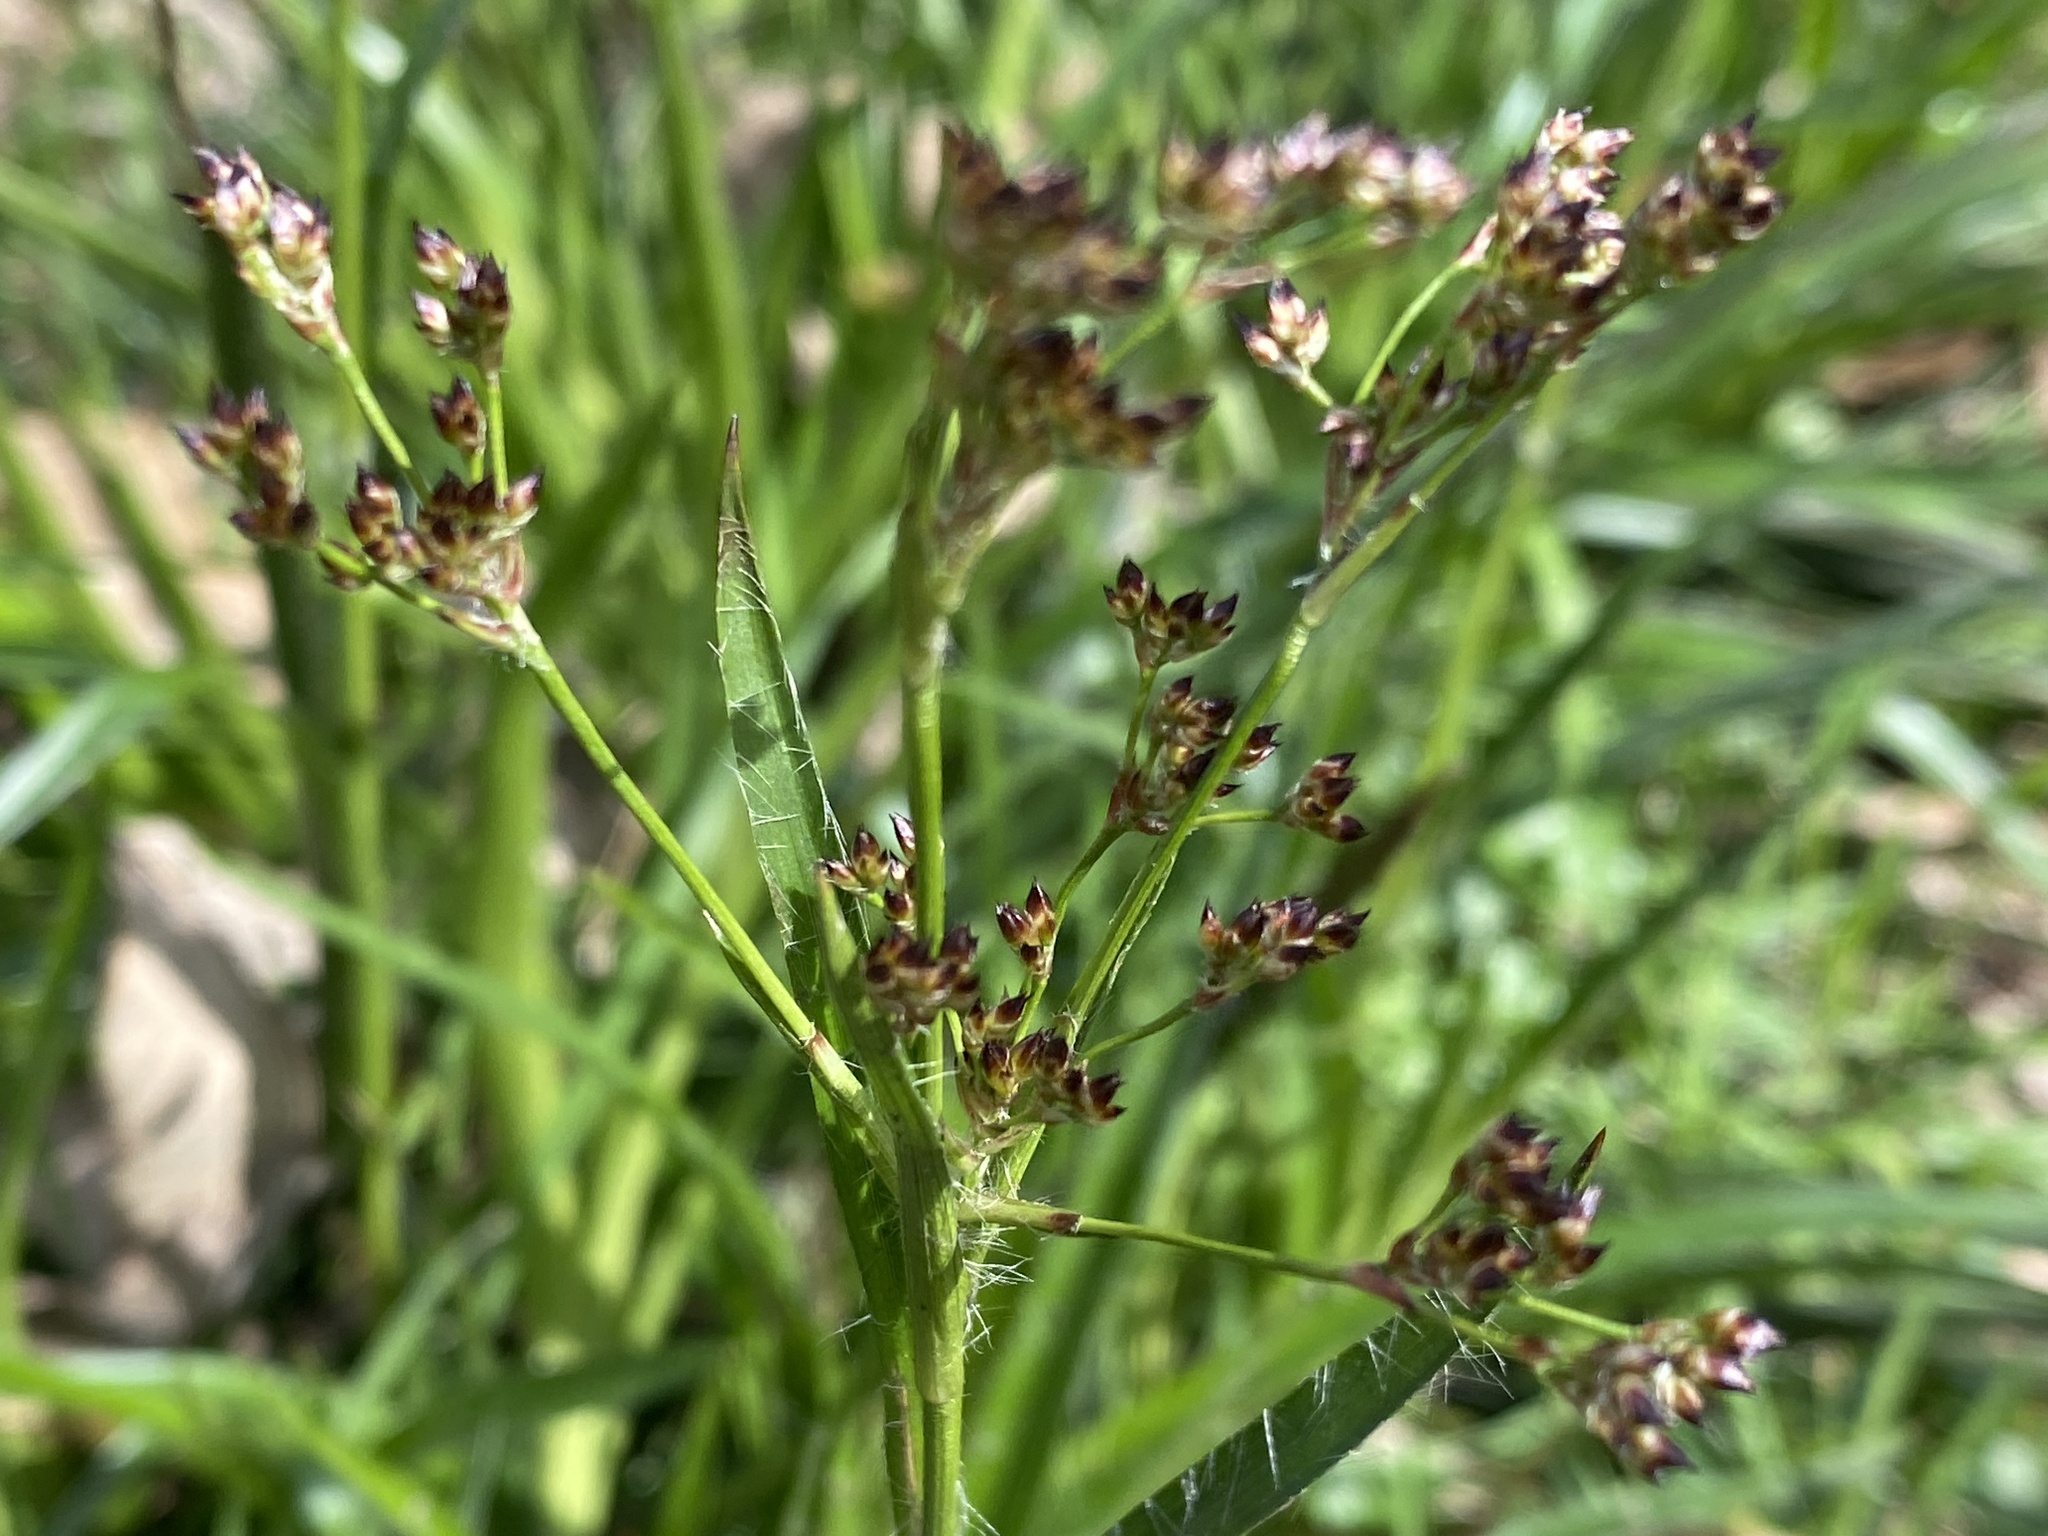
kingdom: Plantae
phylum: Tracheophyta
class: Liliopsida
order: Poales
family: Juncaceae
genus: Luzula
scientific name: Luzula sylvatica
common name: Great wood-rush
